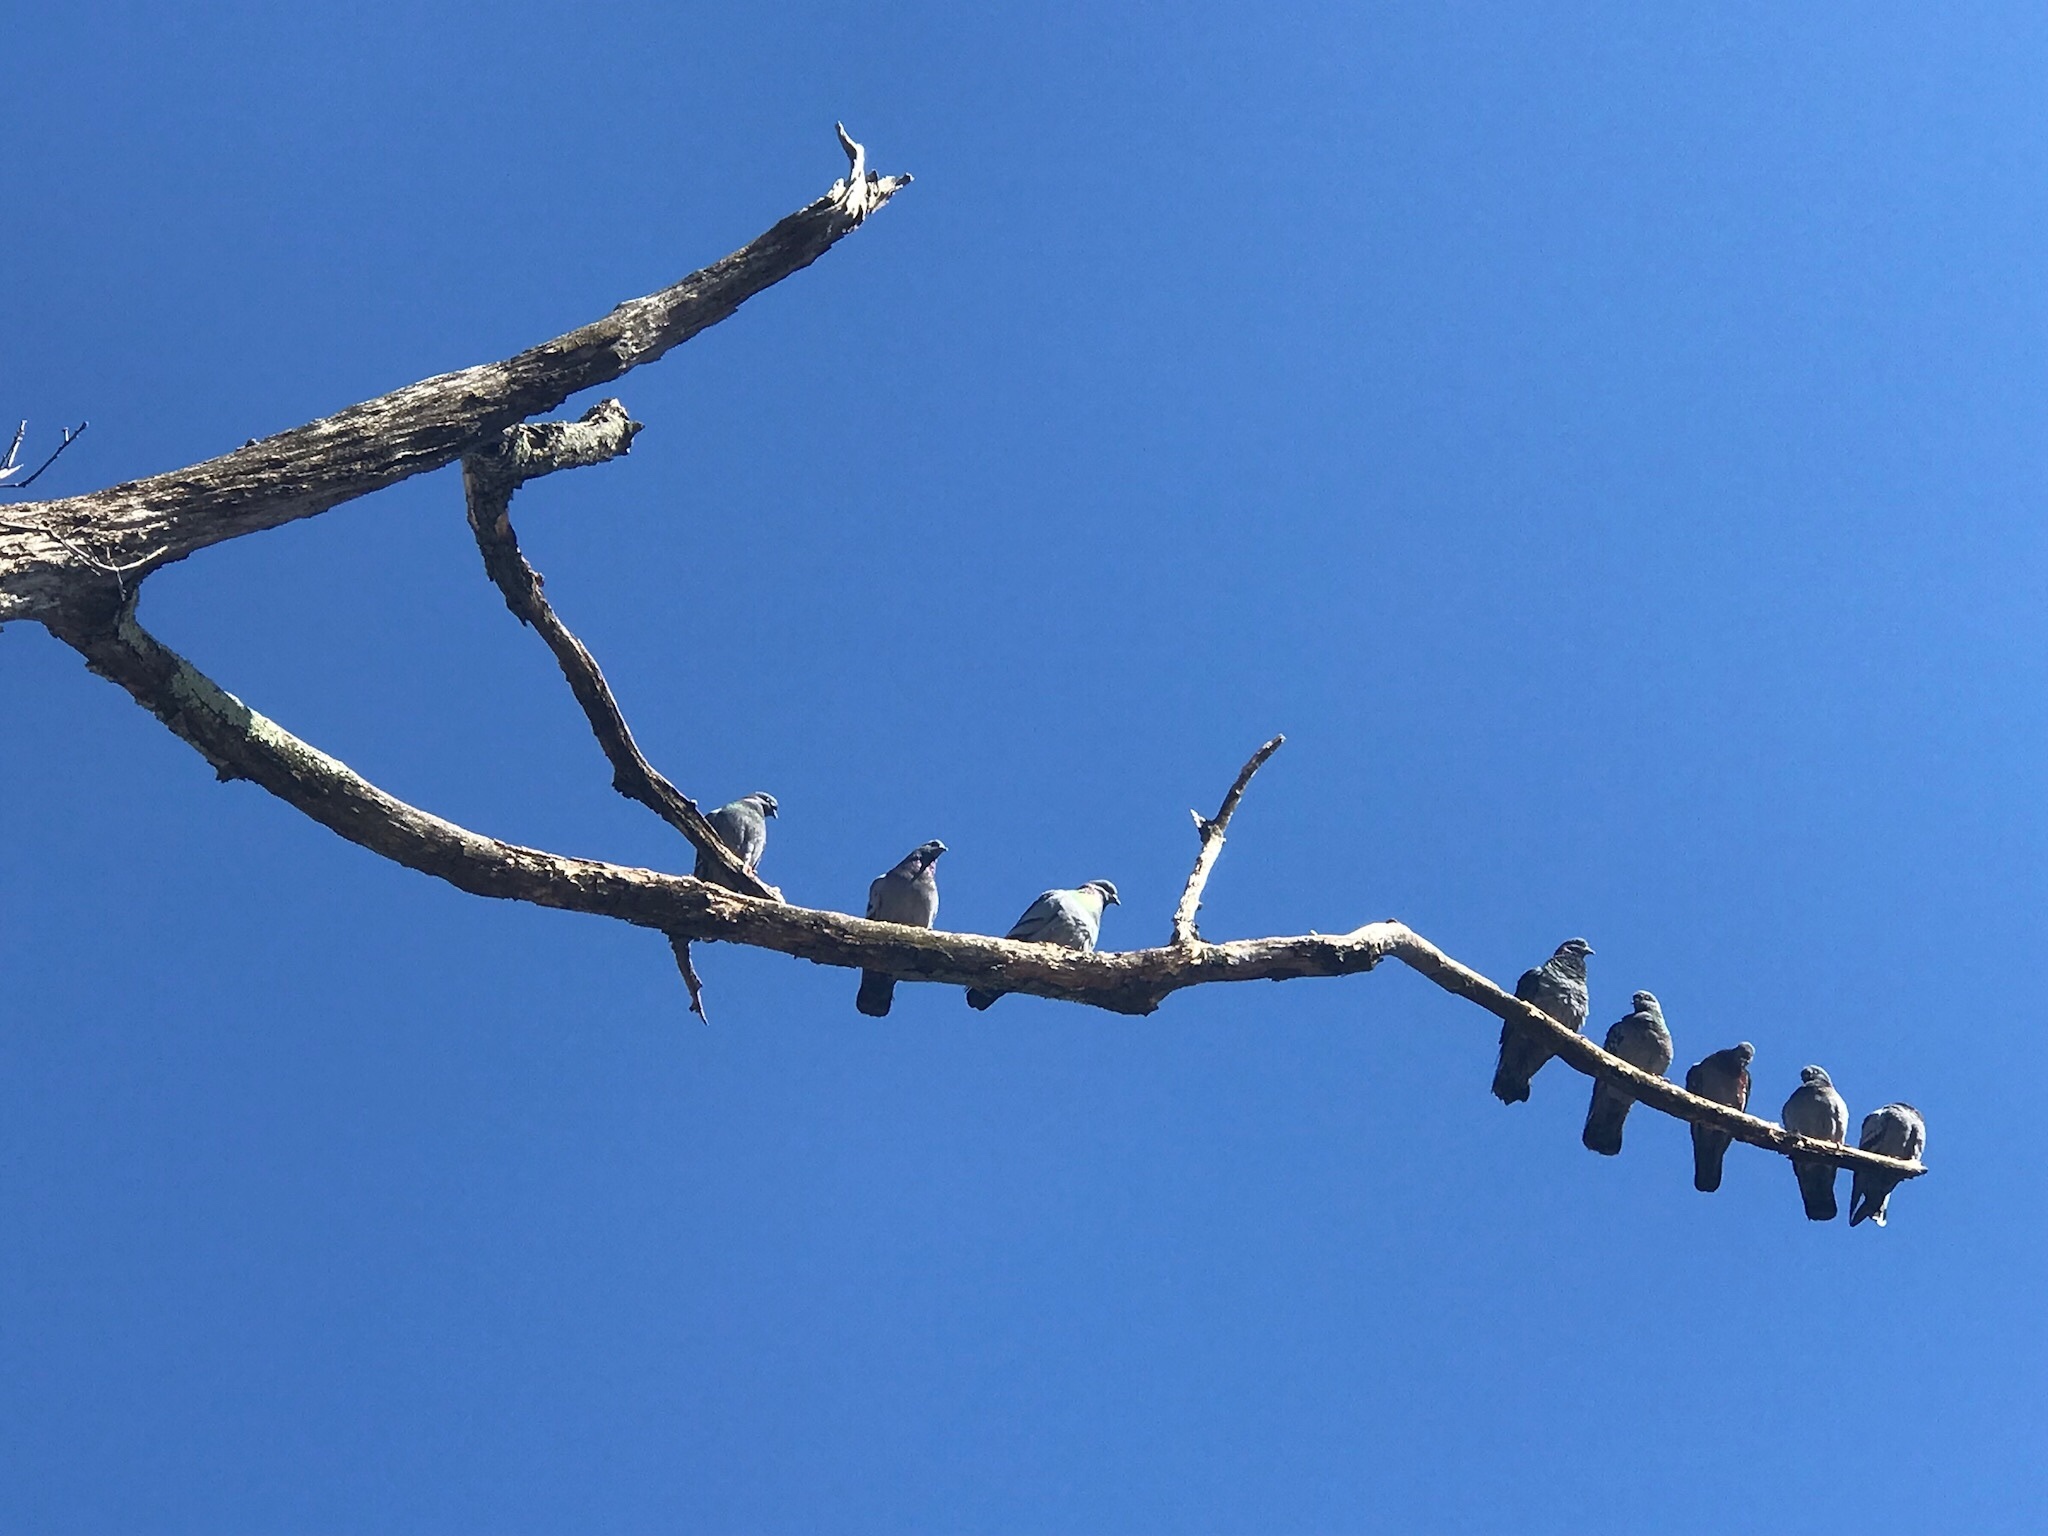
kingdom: Animalia
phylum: Chordata
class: Aves
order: Columbiformes
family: Columbidae
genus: Columba
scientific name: Columba livia
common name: Rock pigeon
